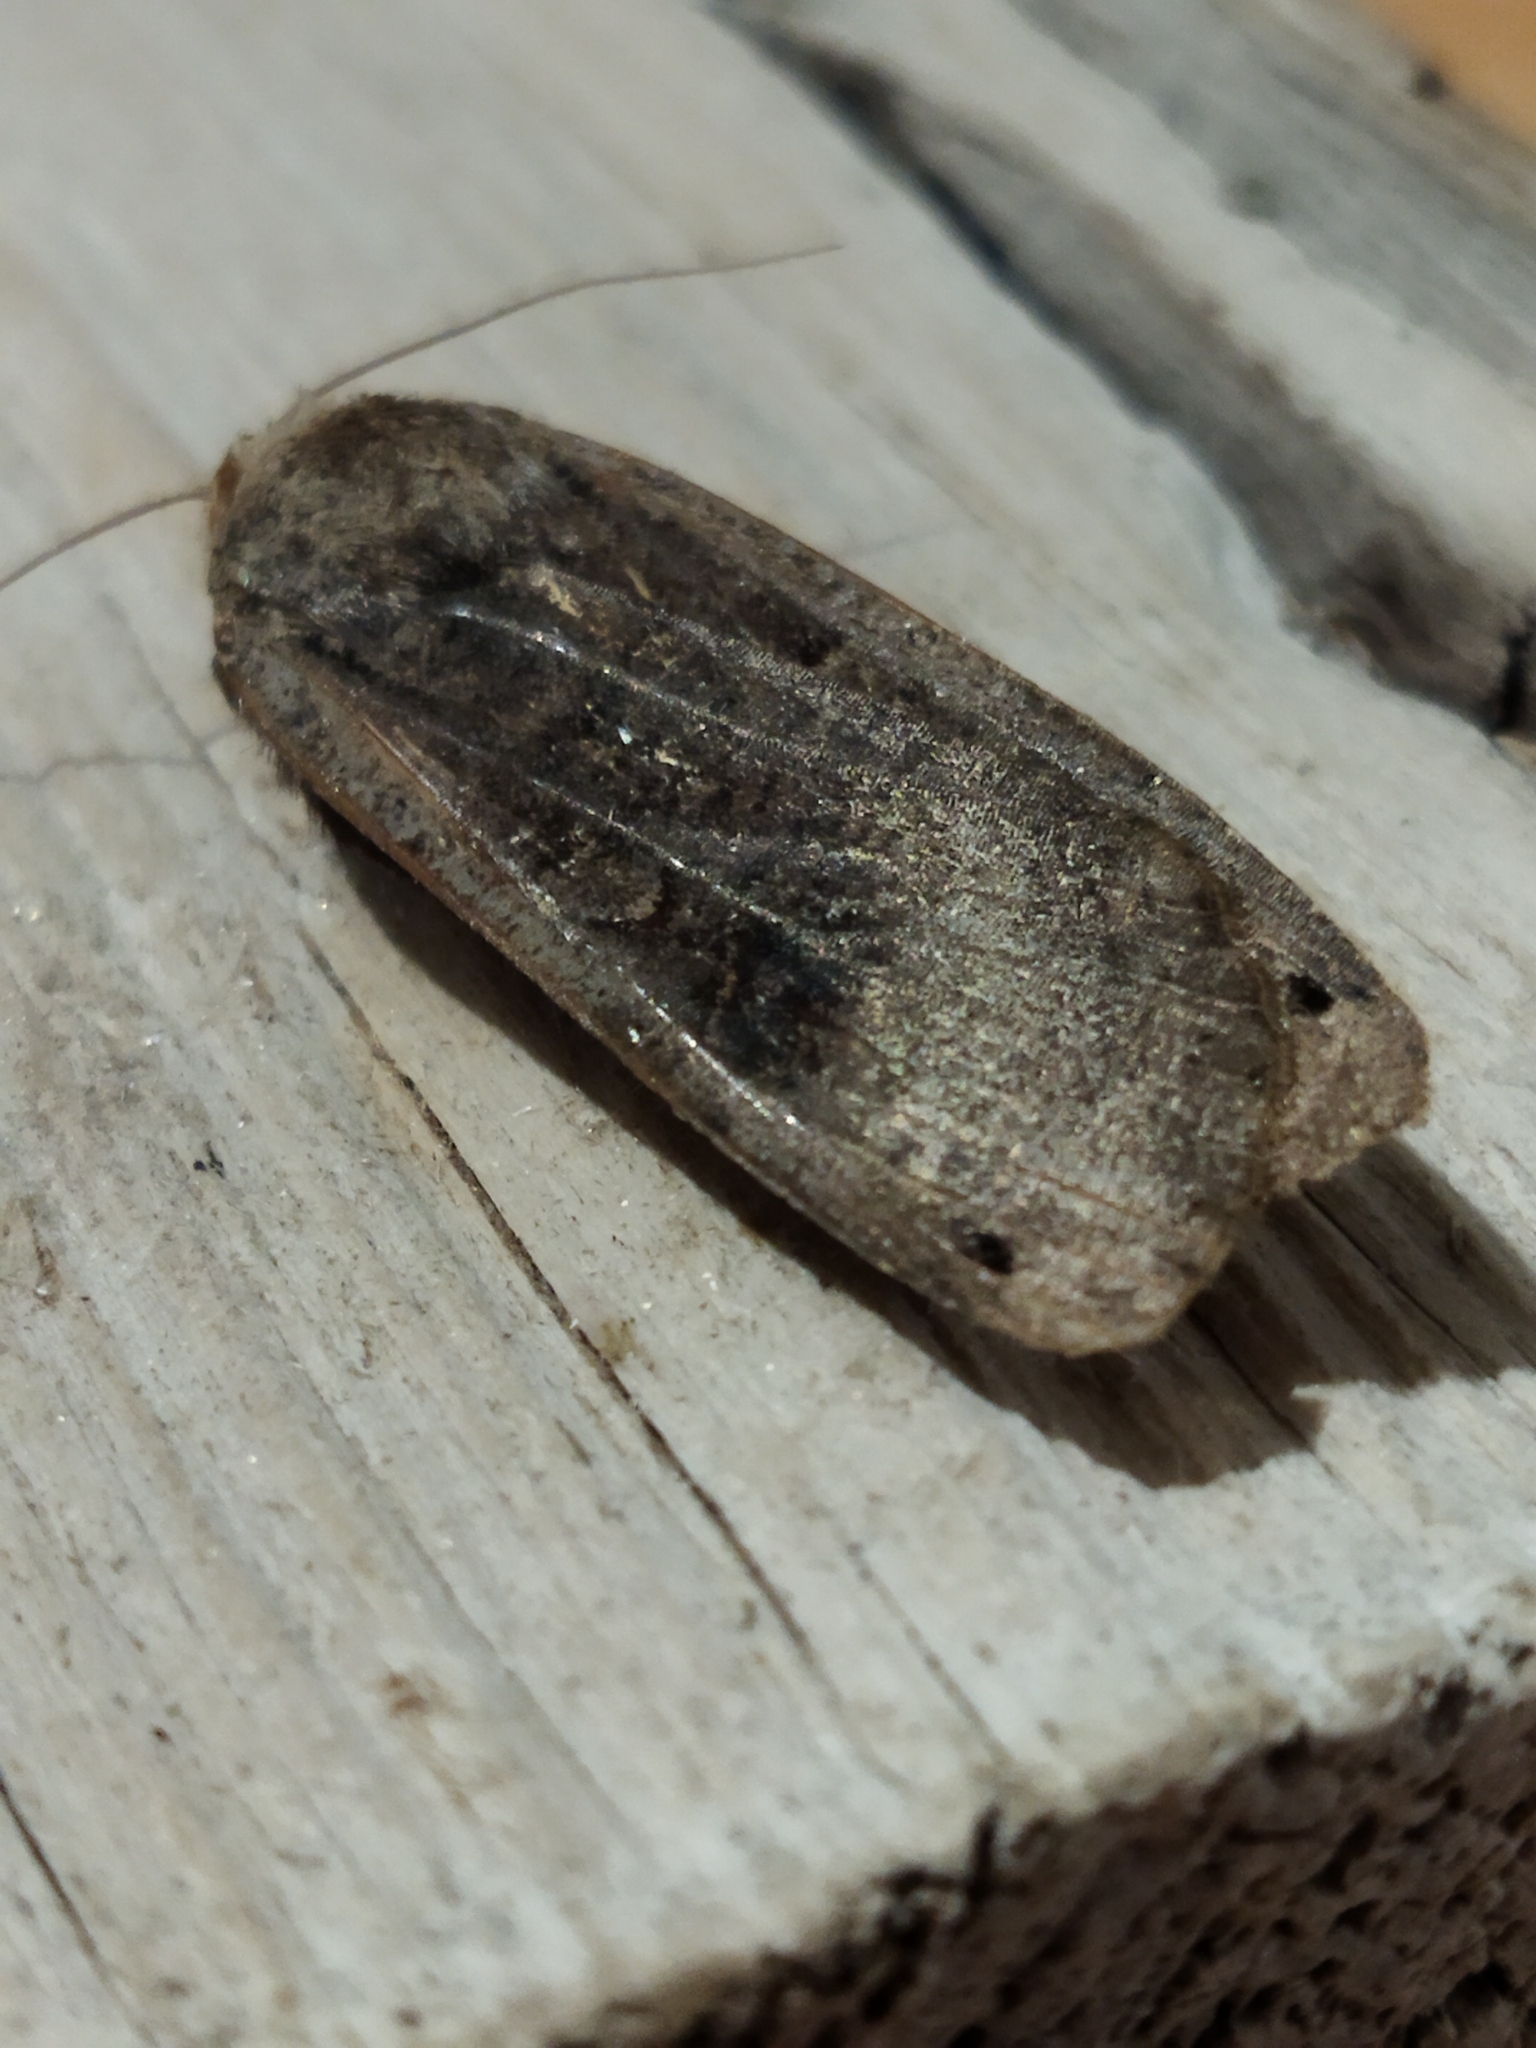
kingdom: Animalia
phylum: Arthropoda
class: Insecta
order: Lepidoptera
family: Noctuidae
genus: Noctua
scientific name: Noctua pronuba
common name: Large yellow underwing
